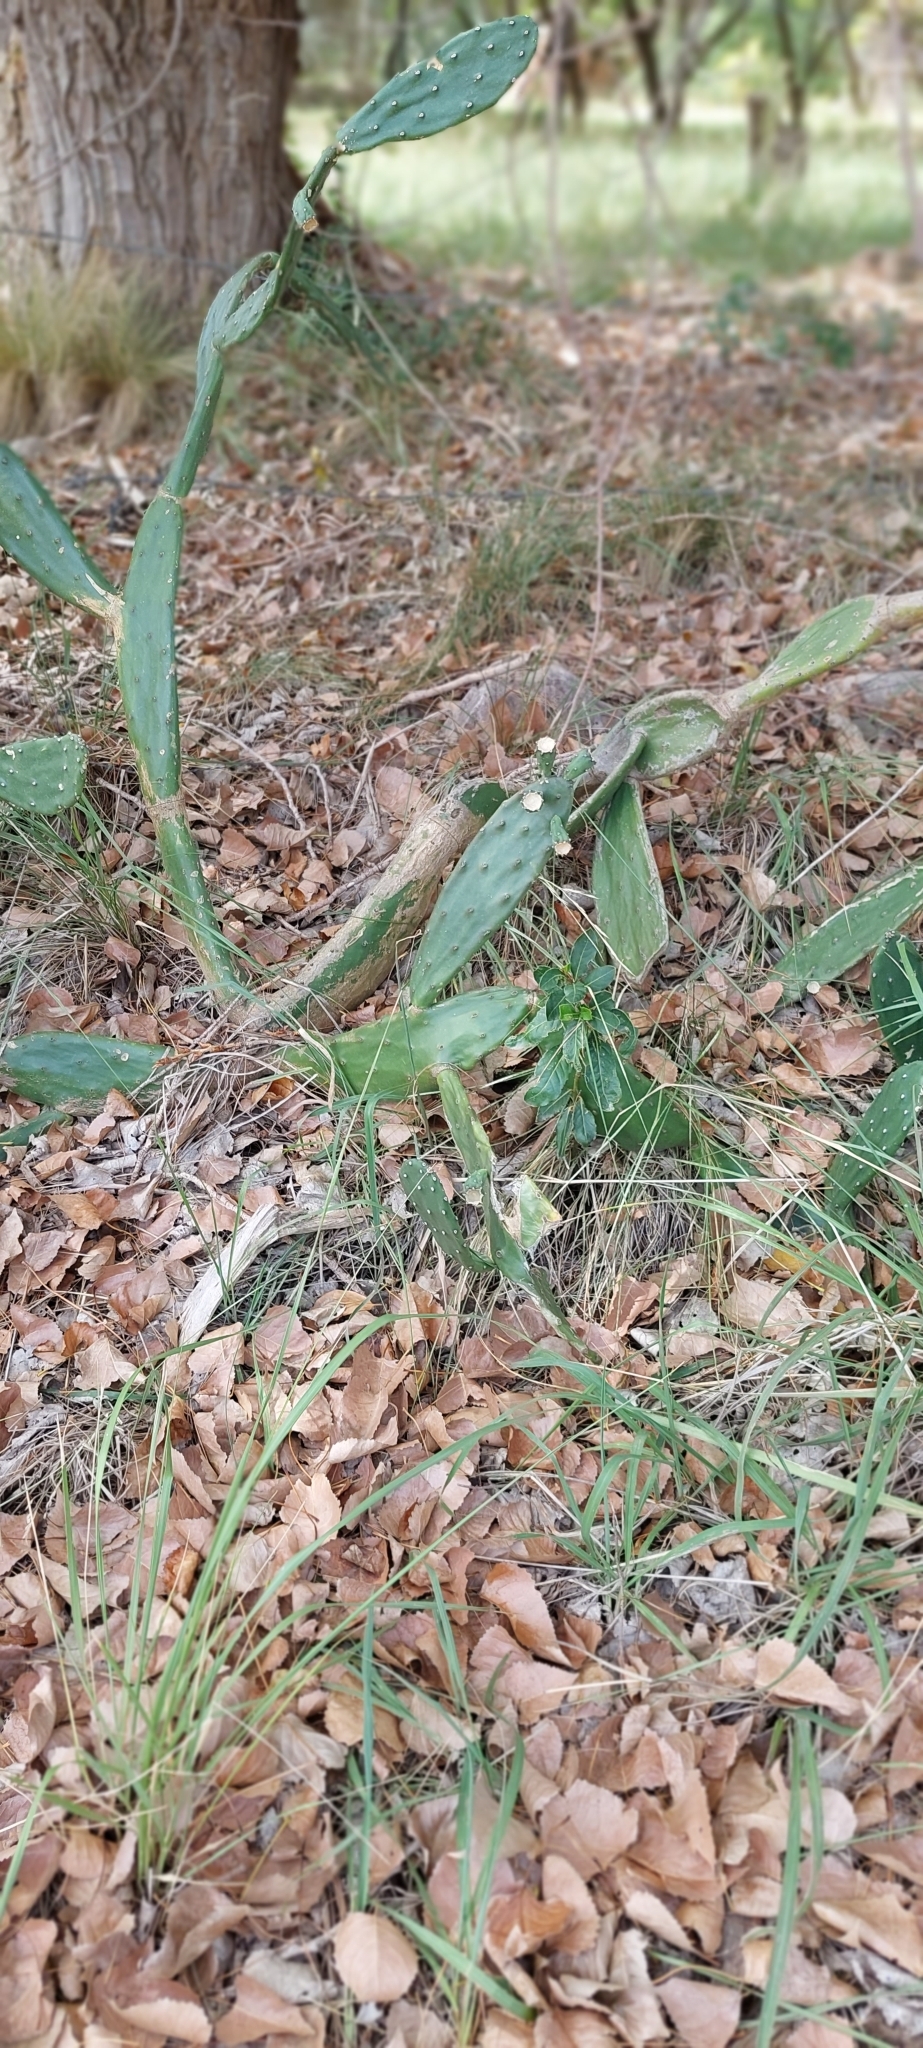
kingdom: Plantae
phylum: Tracheophyta
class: Magnoliopsida
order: Caryophyllales
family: Cactaceae
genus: Opuntia
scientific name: Opuntia elata
